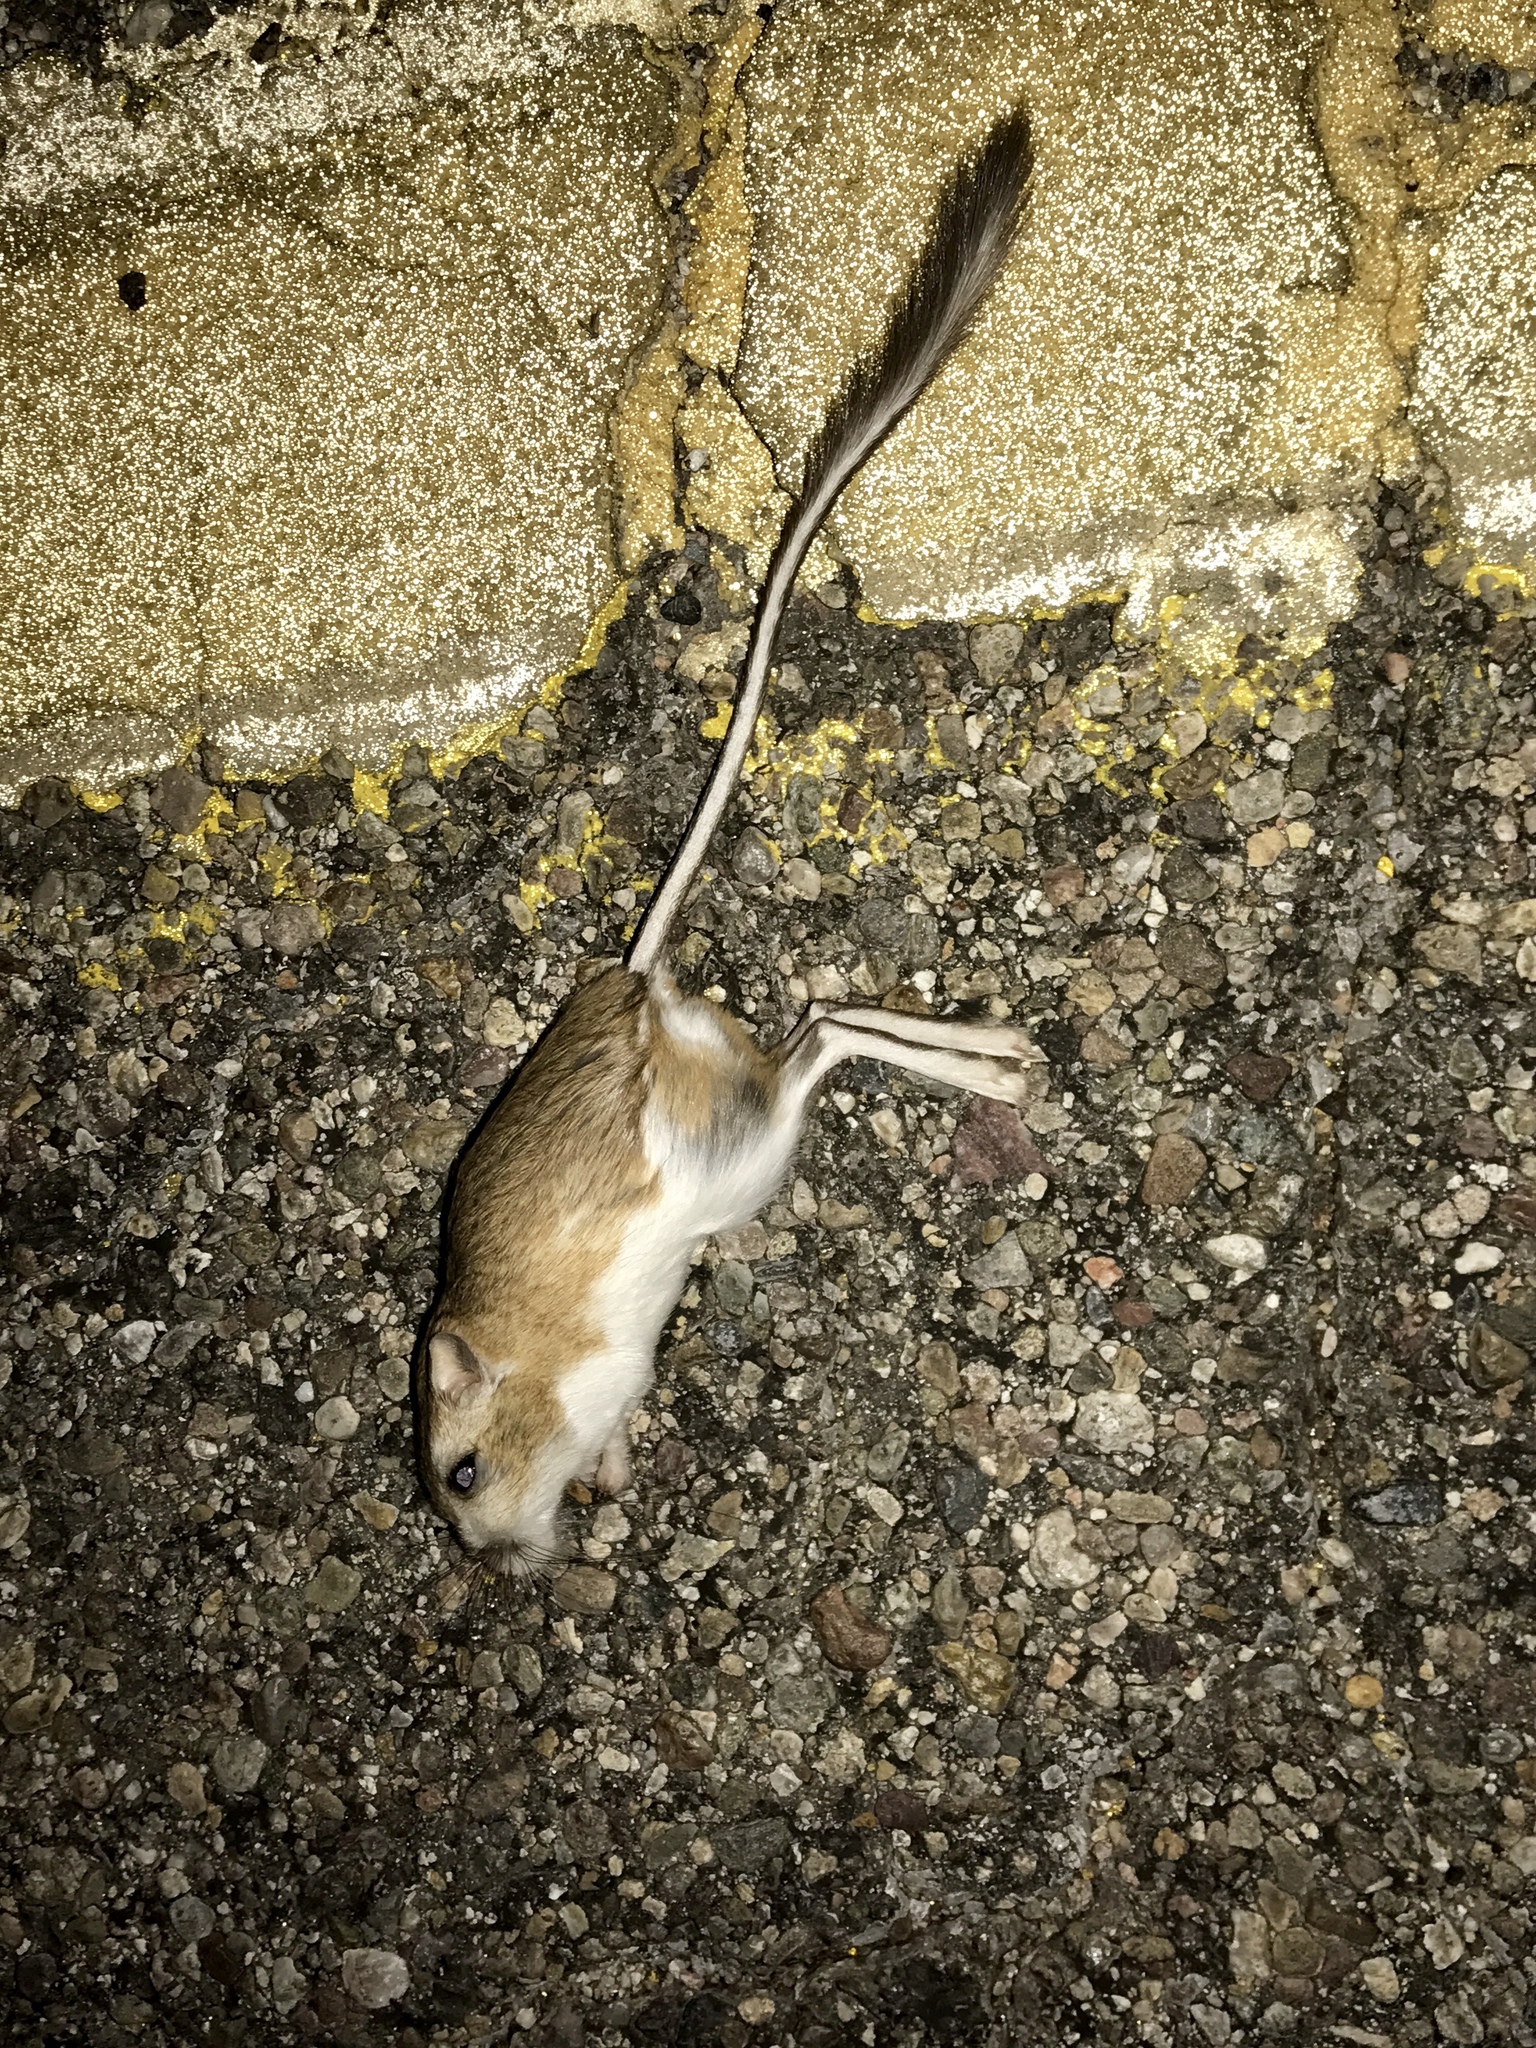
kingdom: Animalia
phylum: Chordata
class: Mammalia
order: Rodentia
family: Heteromyidae
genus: Dipodomys
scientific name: Dipodomys merriami
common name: Merriam's kangaroo rat
